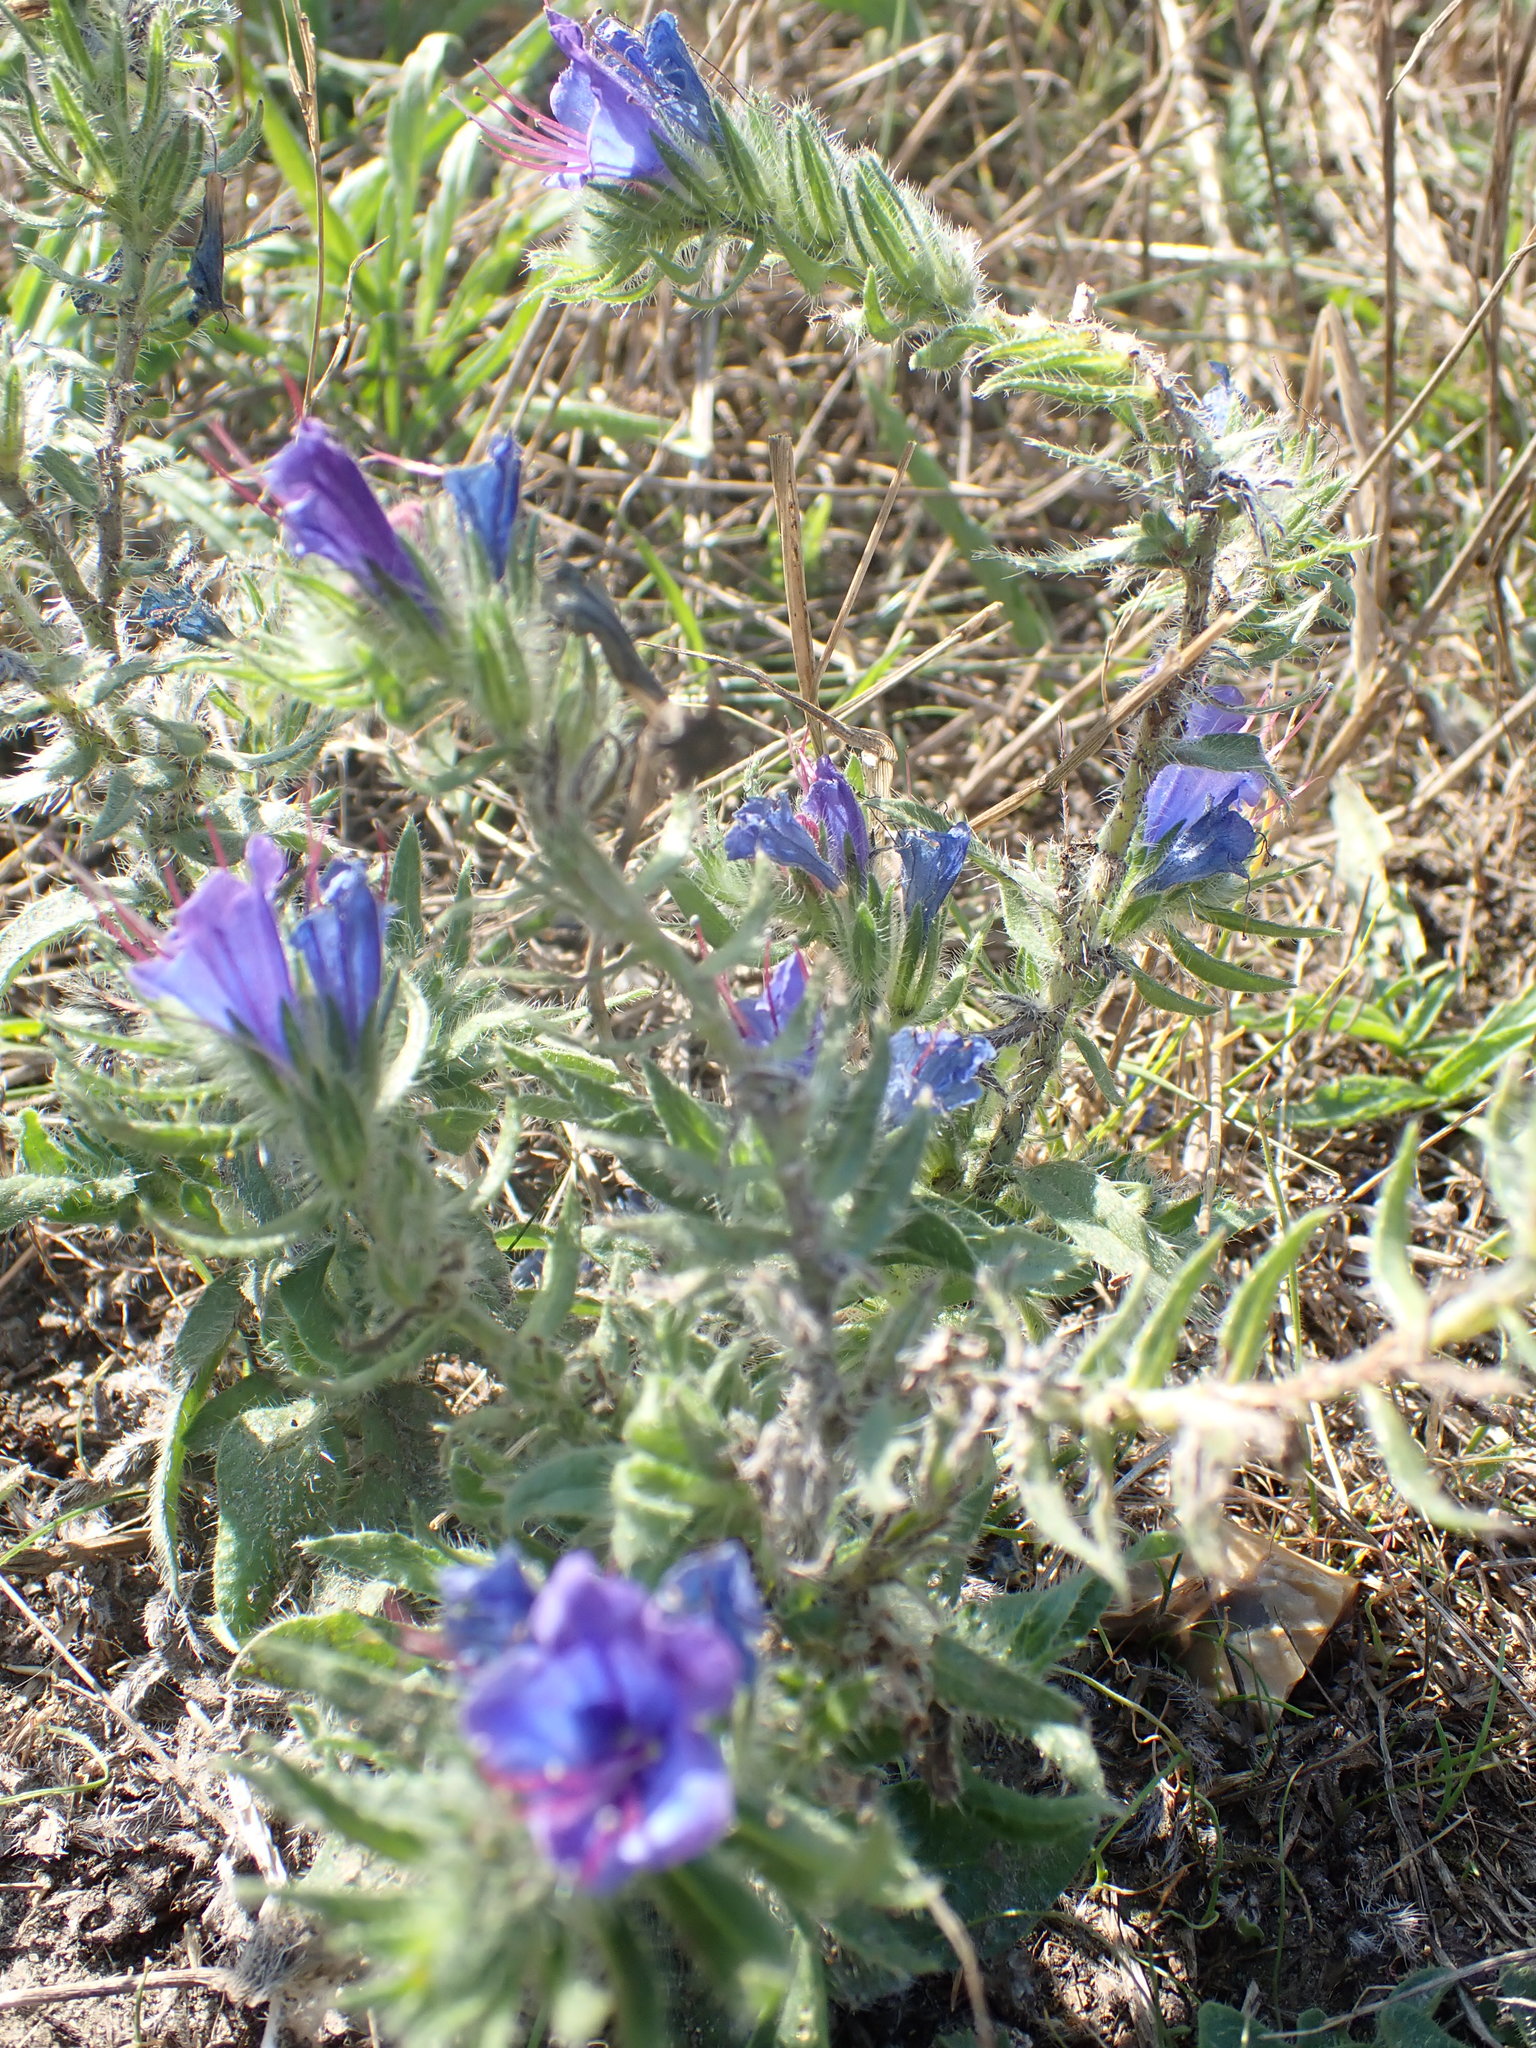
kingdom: Plantae
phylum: Tracheophyta
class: Magnoliopsida
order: Boraginales
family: Boraginaceae
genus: Echium
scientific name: Echium vulgare
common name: Common viper's bugloss
